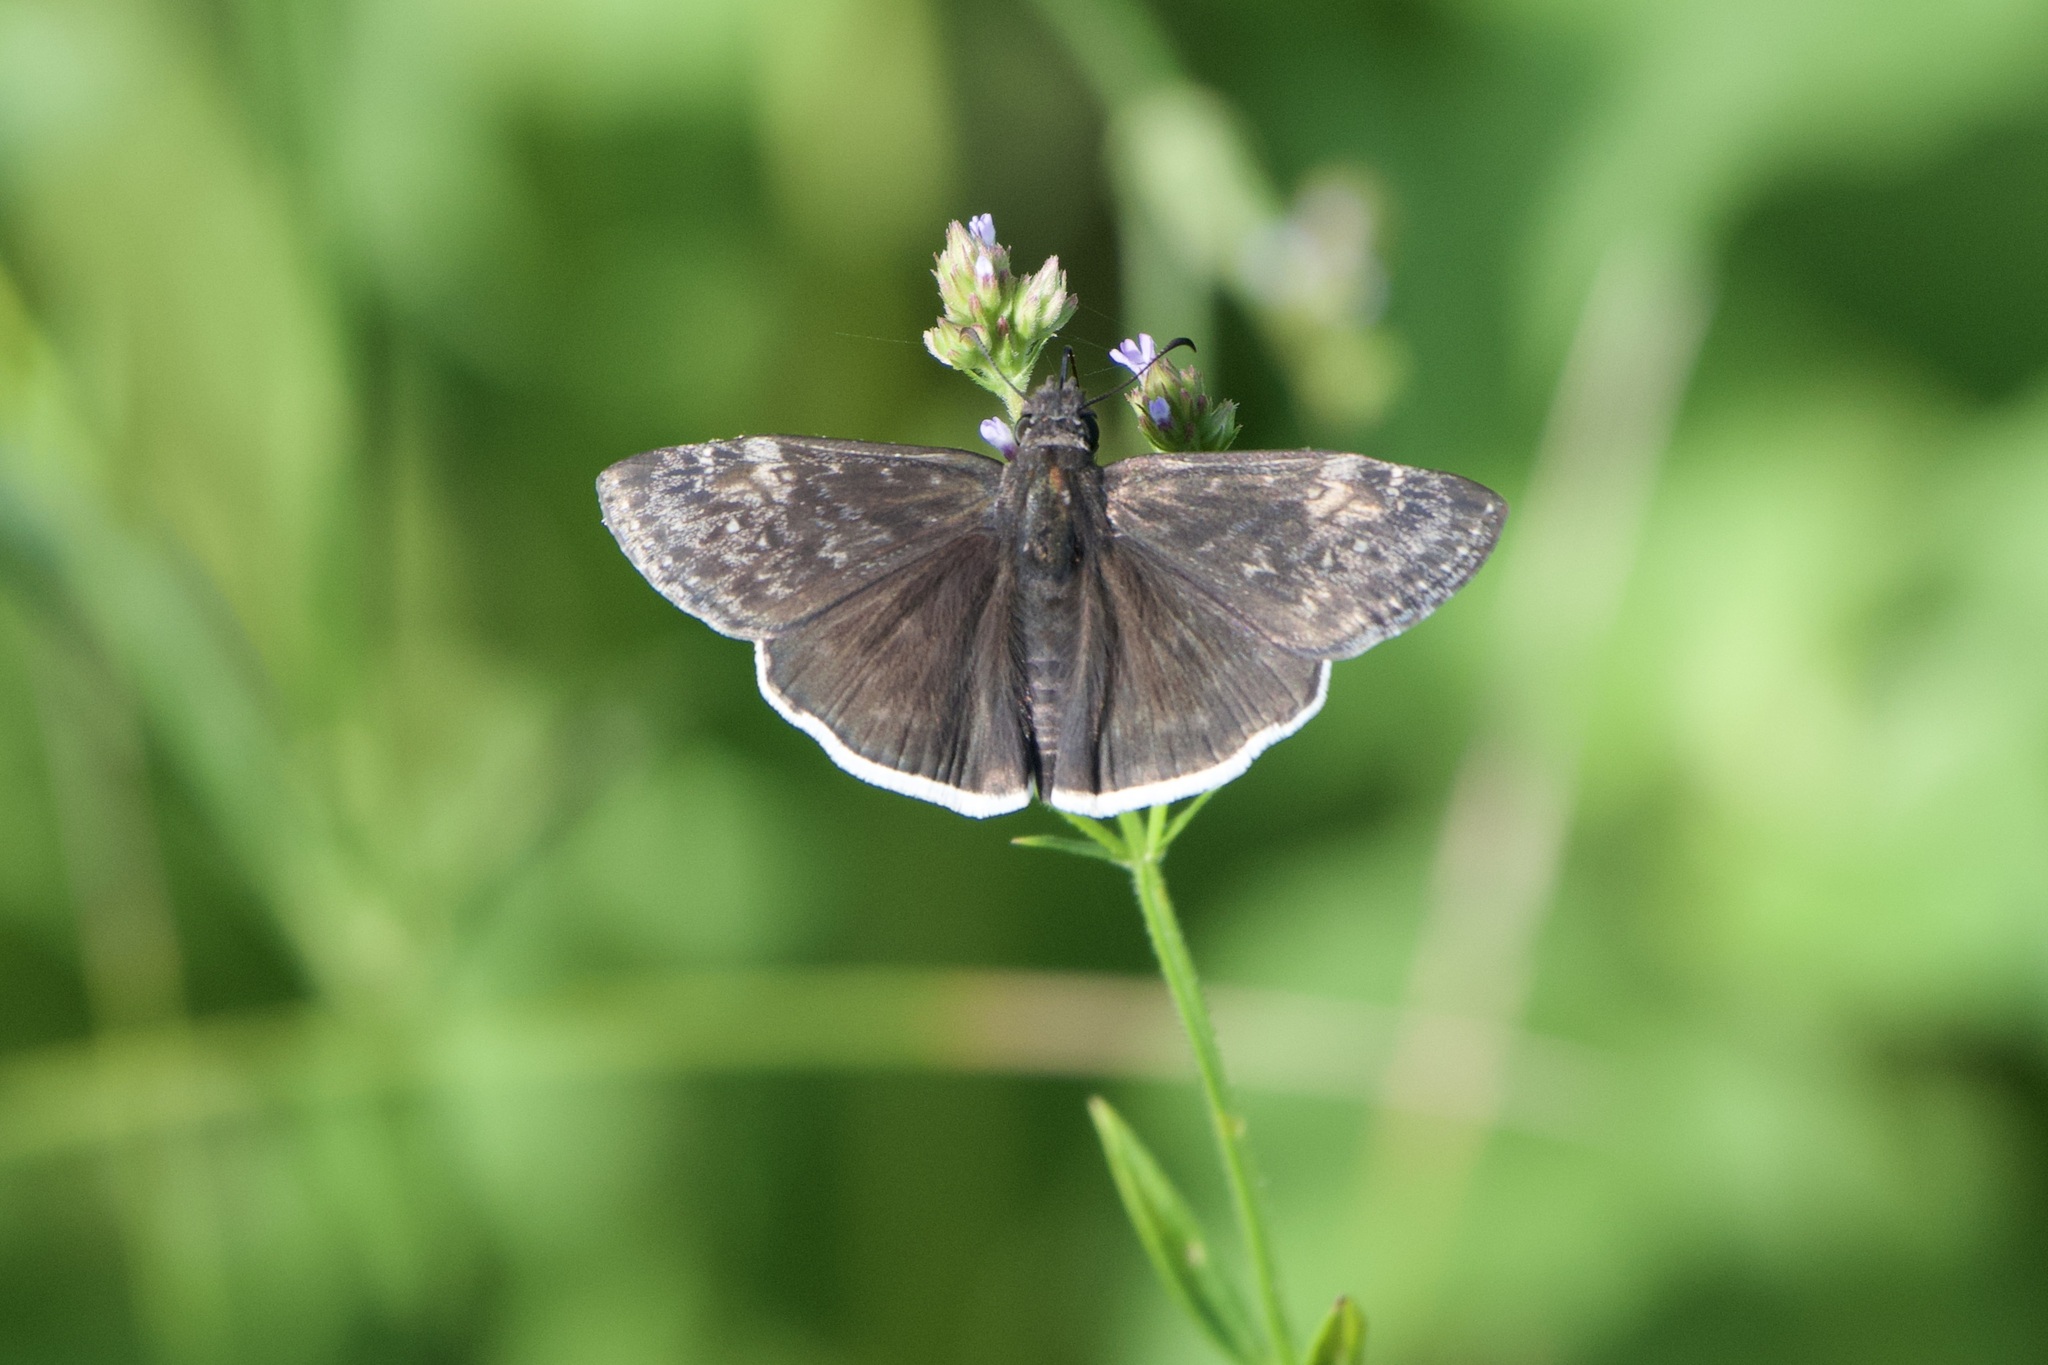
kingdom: Animalia
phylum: Arthropoda
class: Insecta
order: Lepidoptera
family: Hesperiidae
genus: Erynnis
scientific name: Erynnis funeralis
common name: Funereal duskywing
